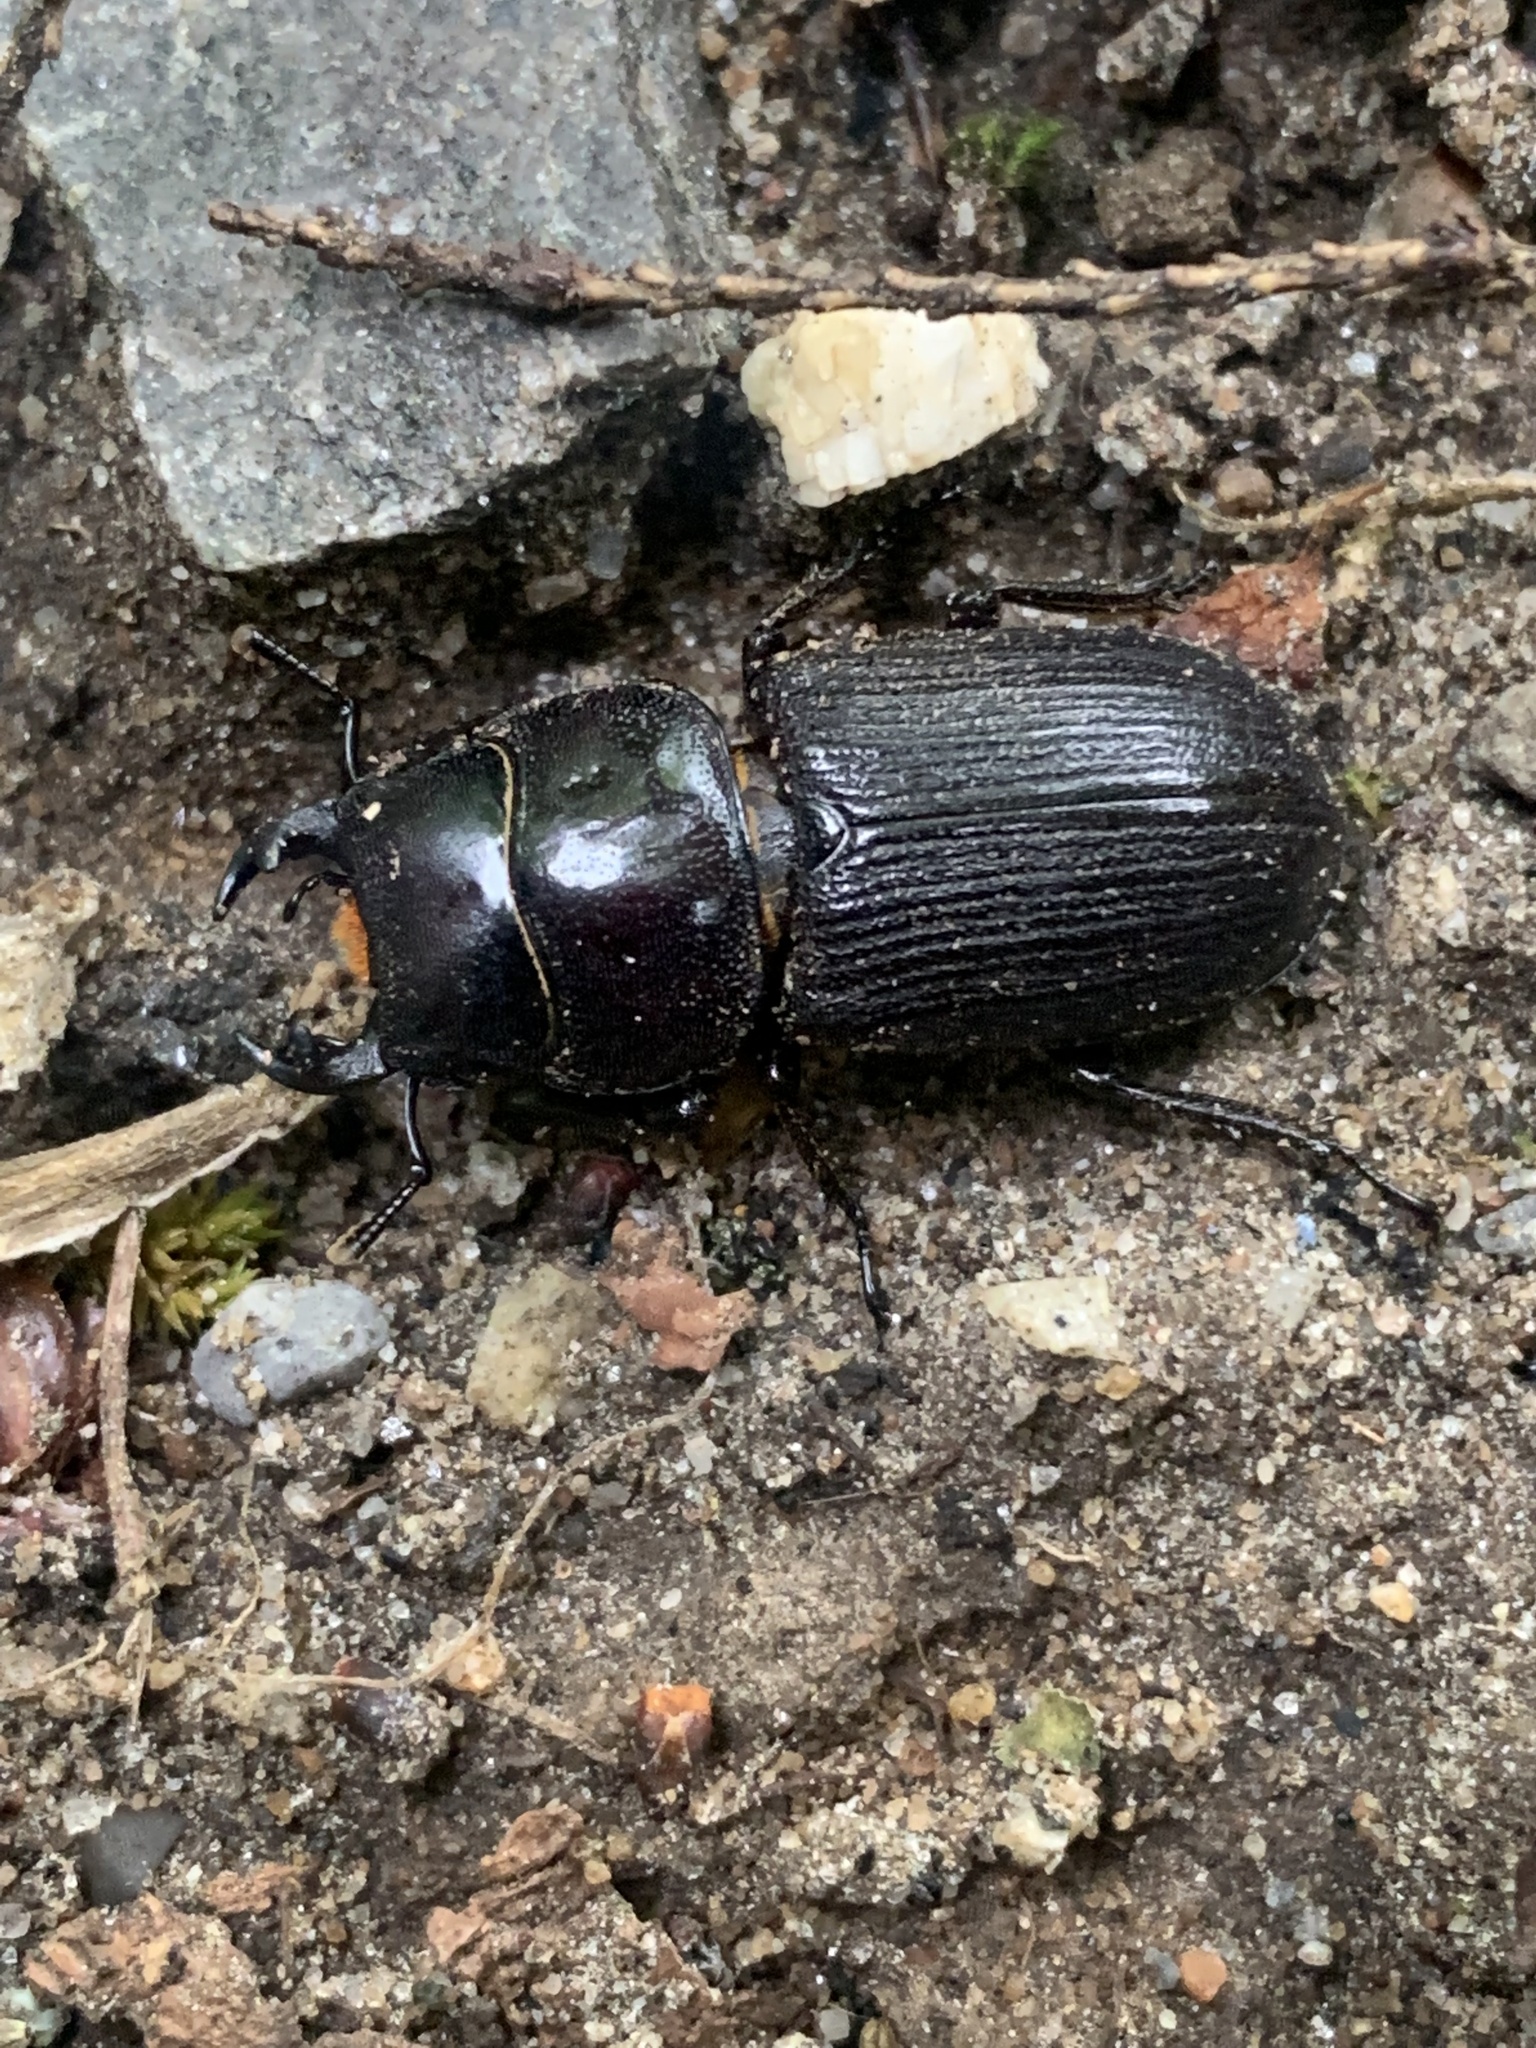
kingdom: Animalia
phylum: Arthropoda
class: Insecta
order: Coleoptera
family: Lucanidae
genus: Dorcus
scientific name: Dorcus parallelus
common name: Antelope beetle
